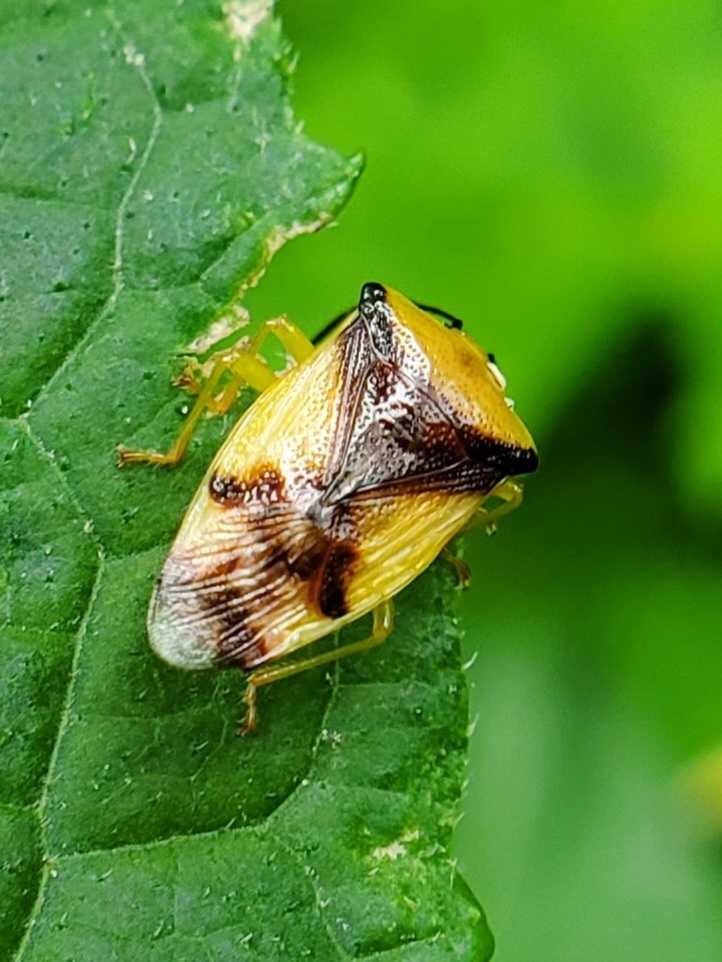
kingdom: Animalia
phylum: Arthropoda
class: Insecta
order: Hemiptera
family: Acanthosomatidae
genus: Elasmostethus
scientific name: Elasmostethus atricornis
